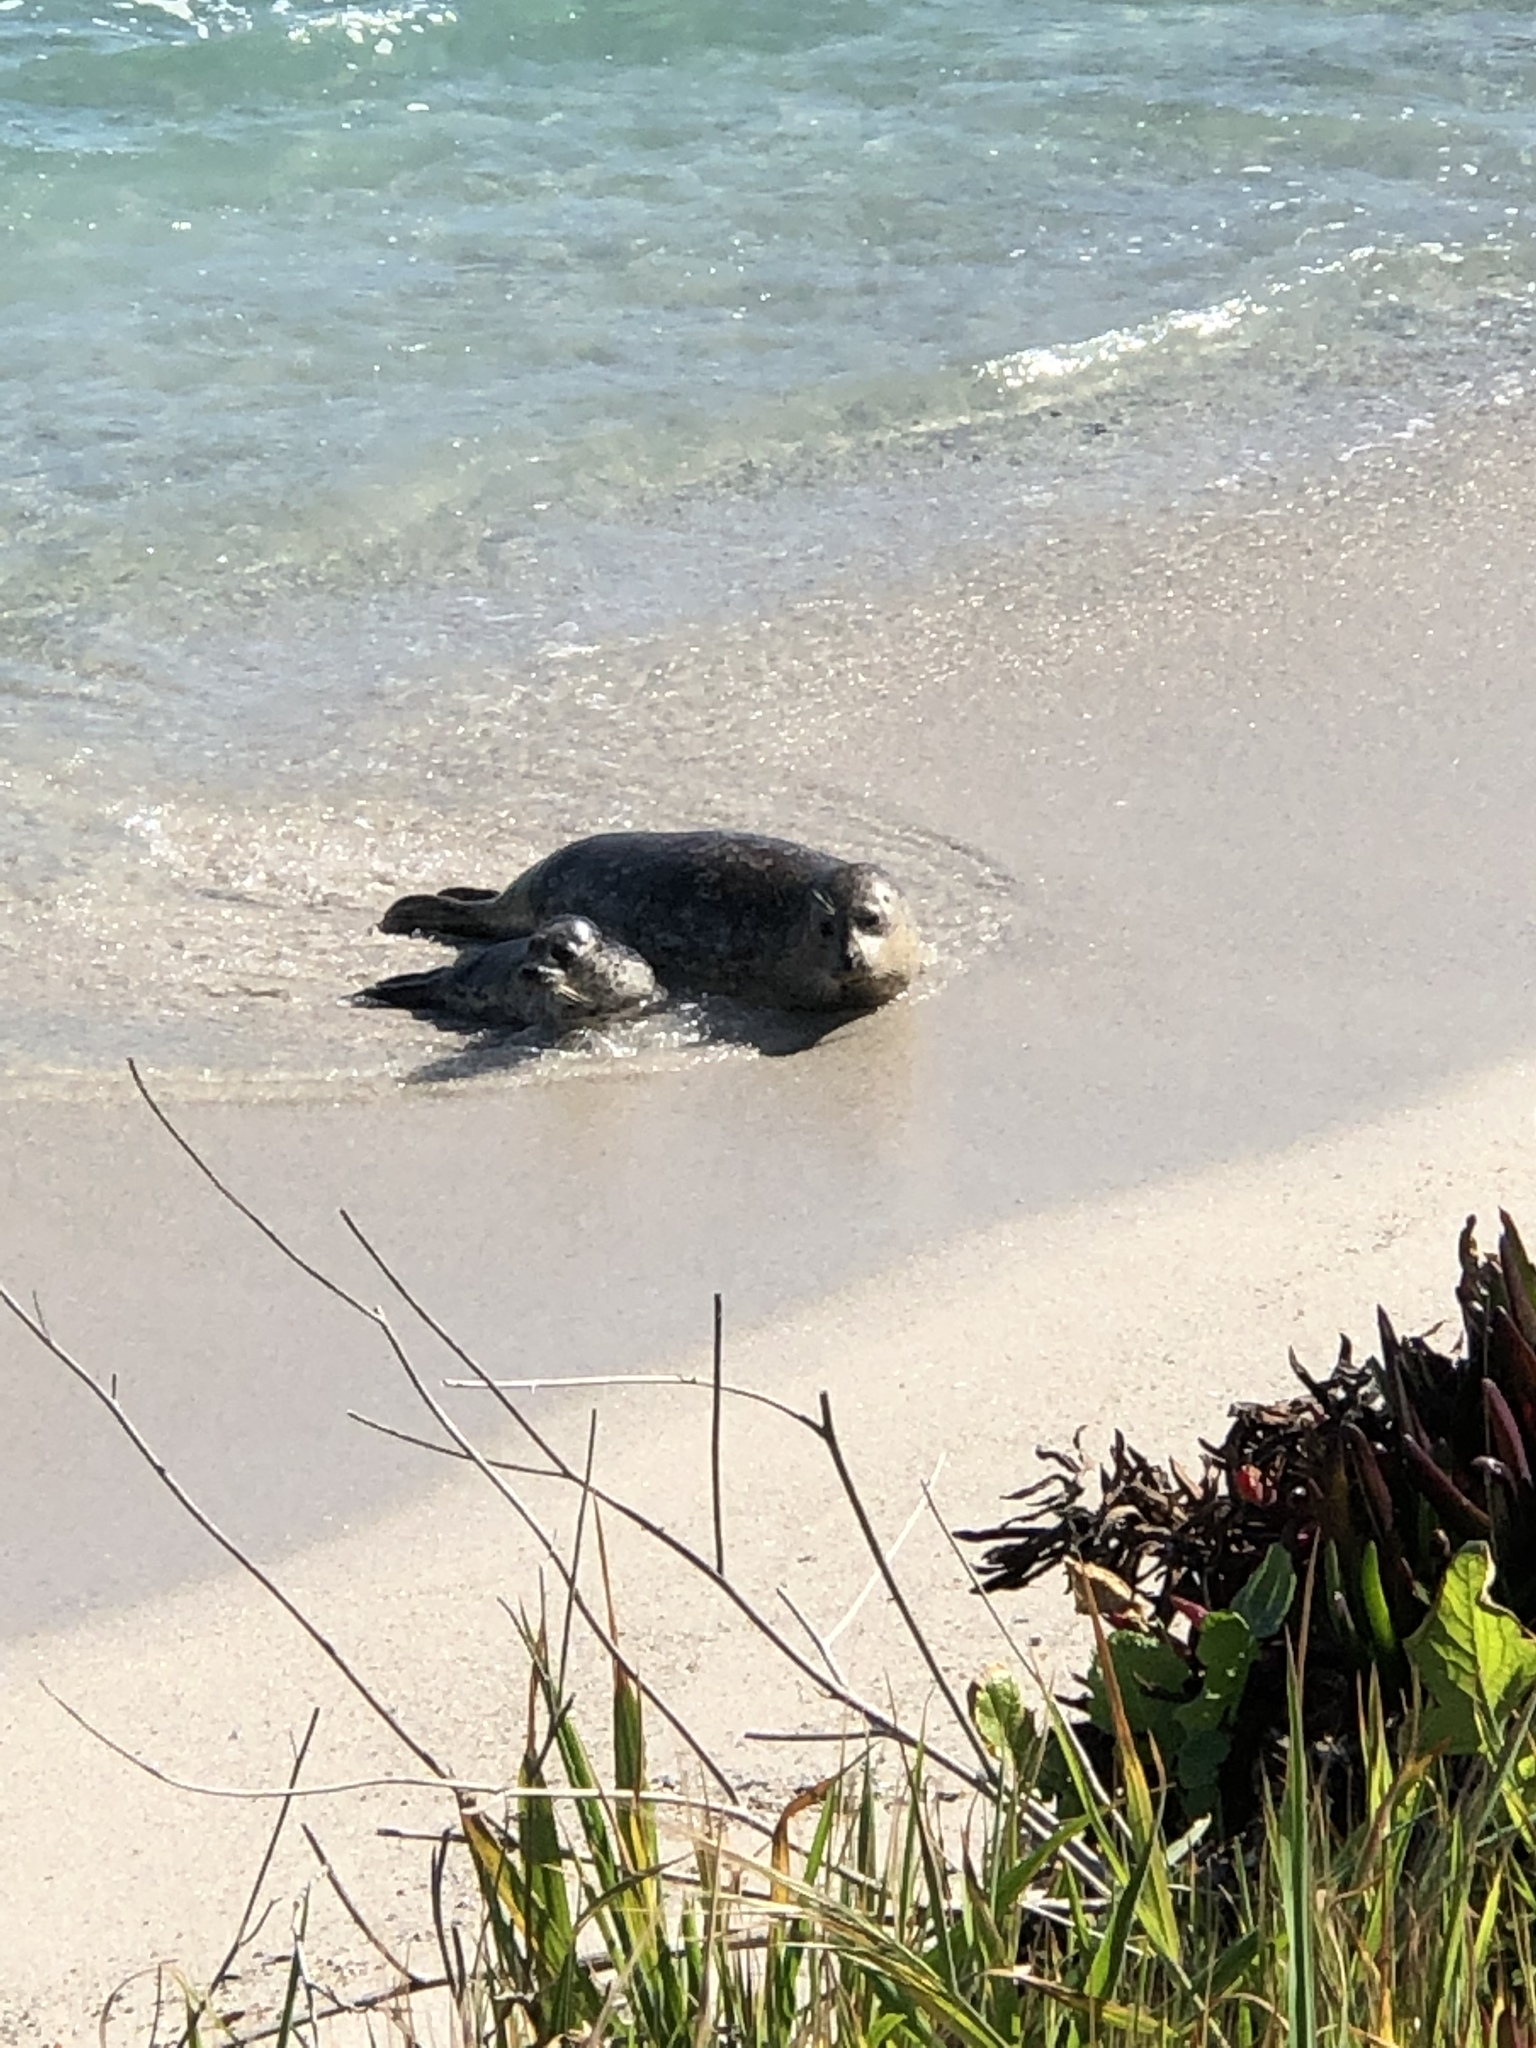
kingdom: Animalia
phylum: Chordata
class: Mammalia
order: Carnivora
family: Phocidae
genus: Phoca
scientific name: Phoca vitulina
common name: Harbor seal
